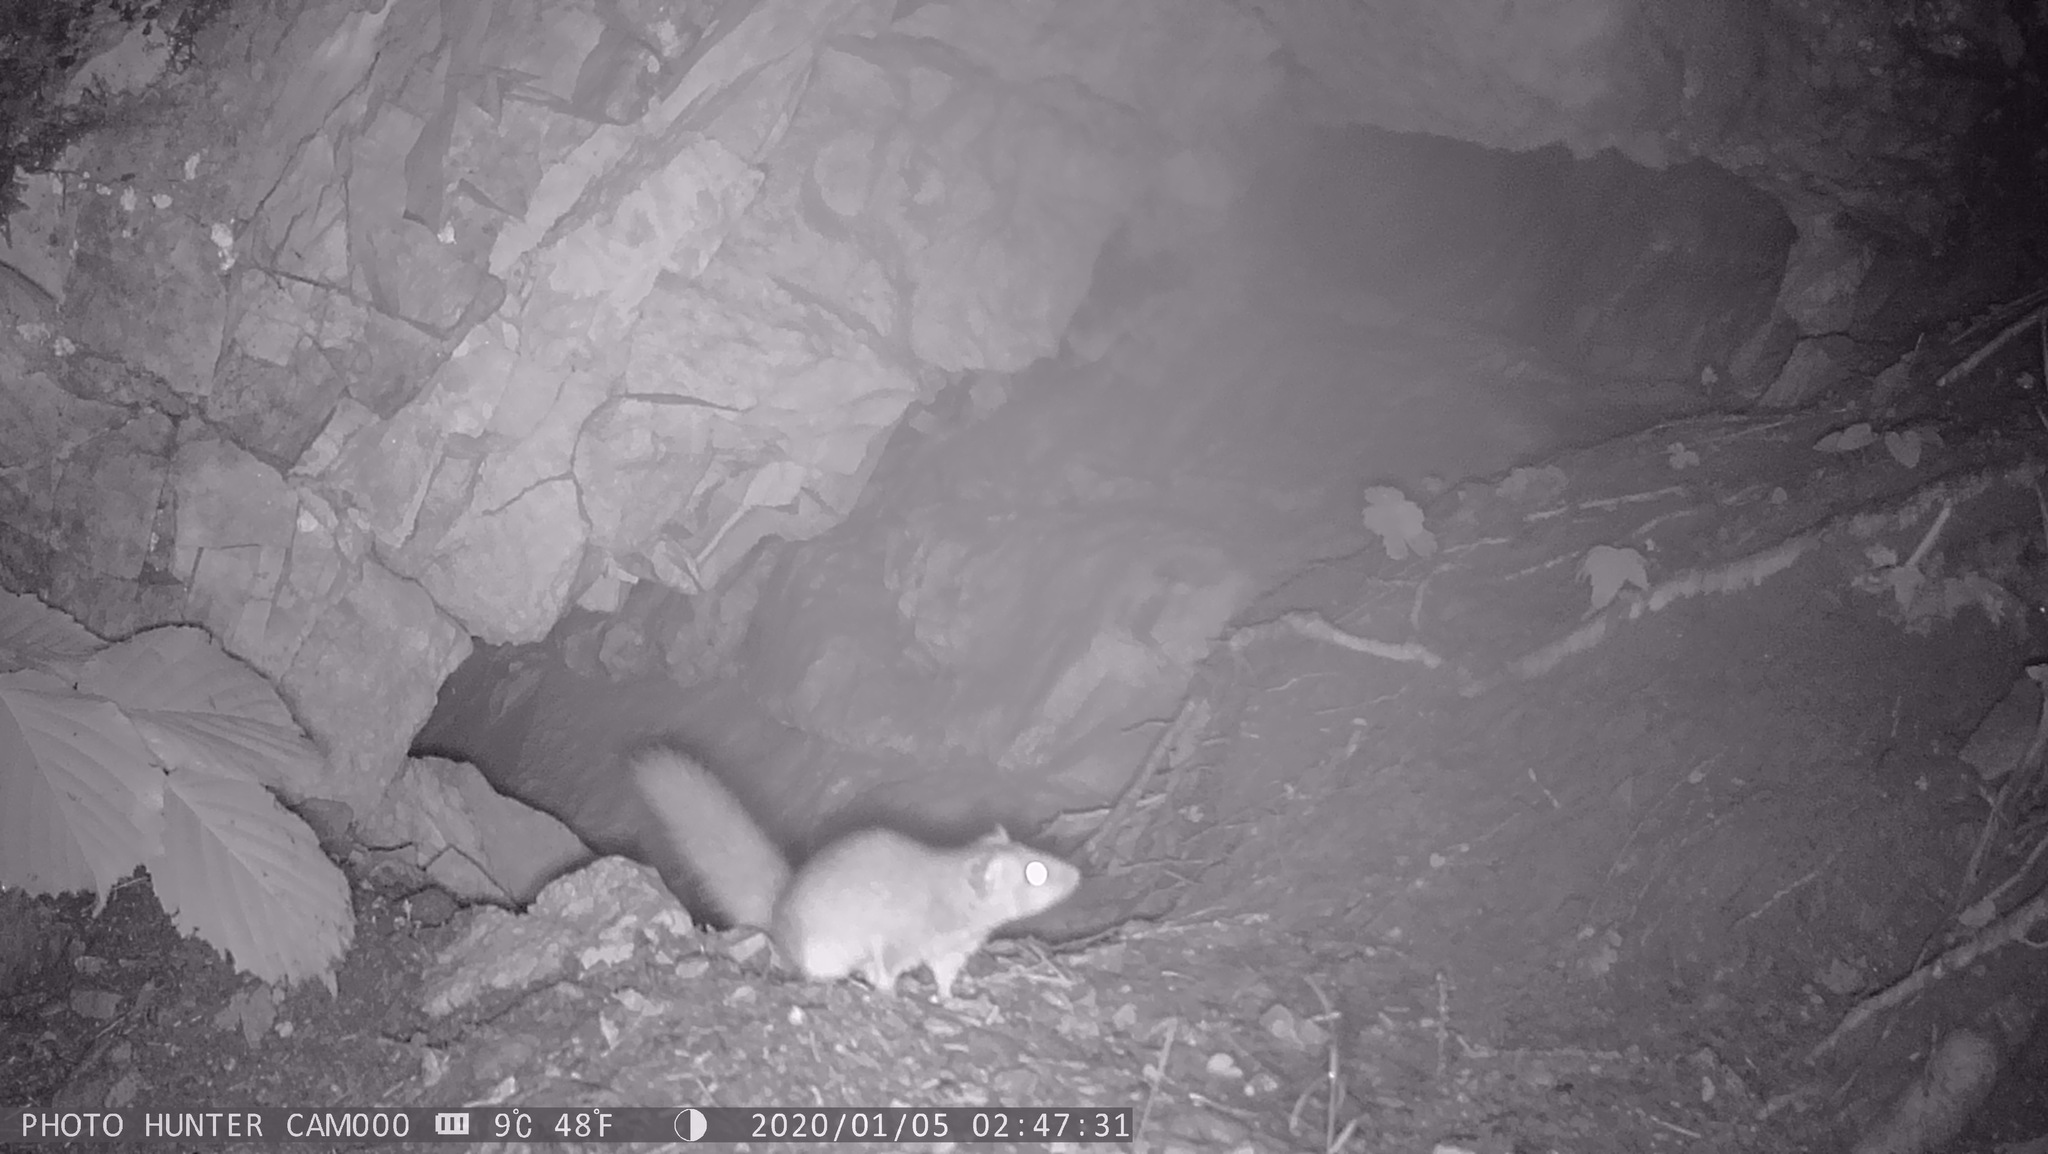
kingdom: Animalia
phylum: Chordata
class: Mammalia
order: Rodentia
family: Gliridae
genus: Glis
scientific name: Glis glis
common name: Fat dormouse
